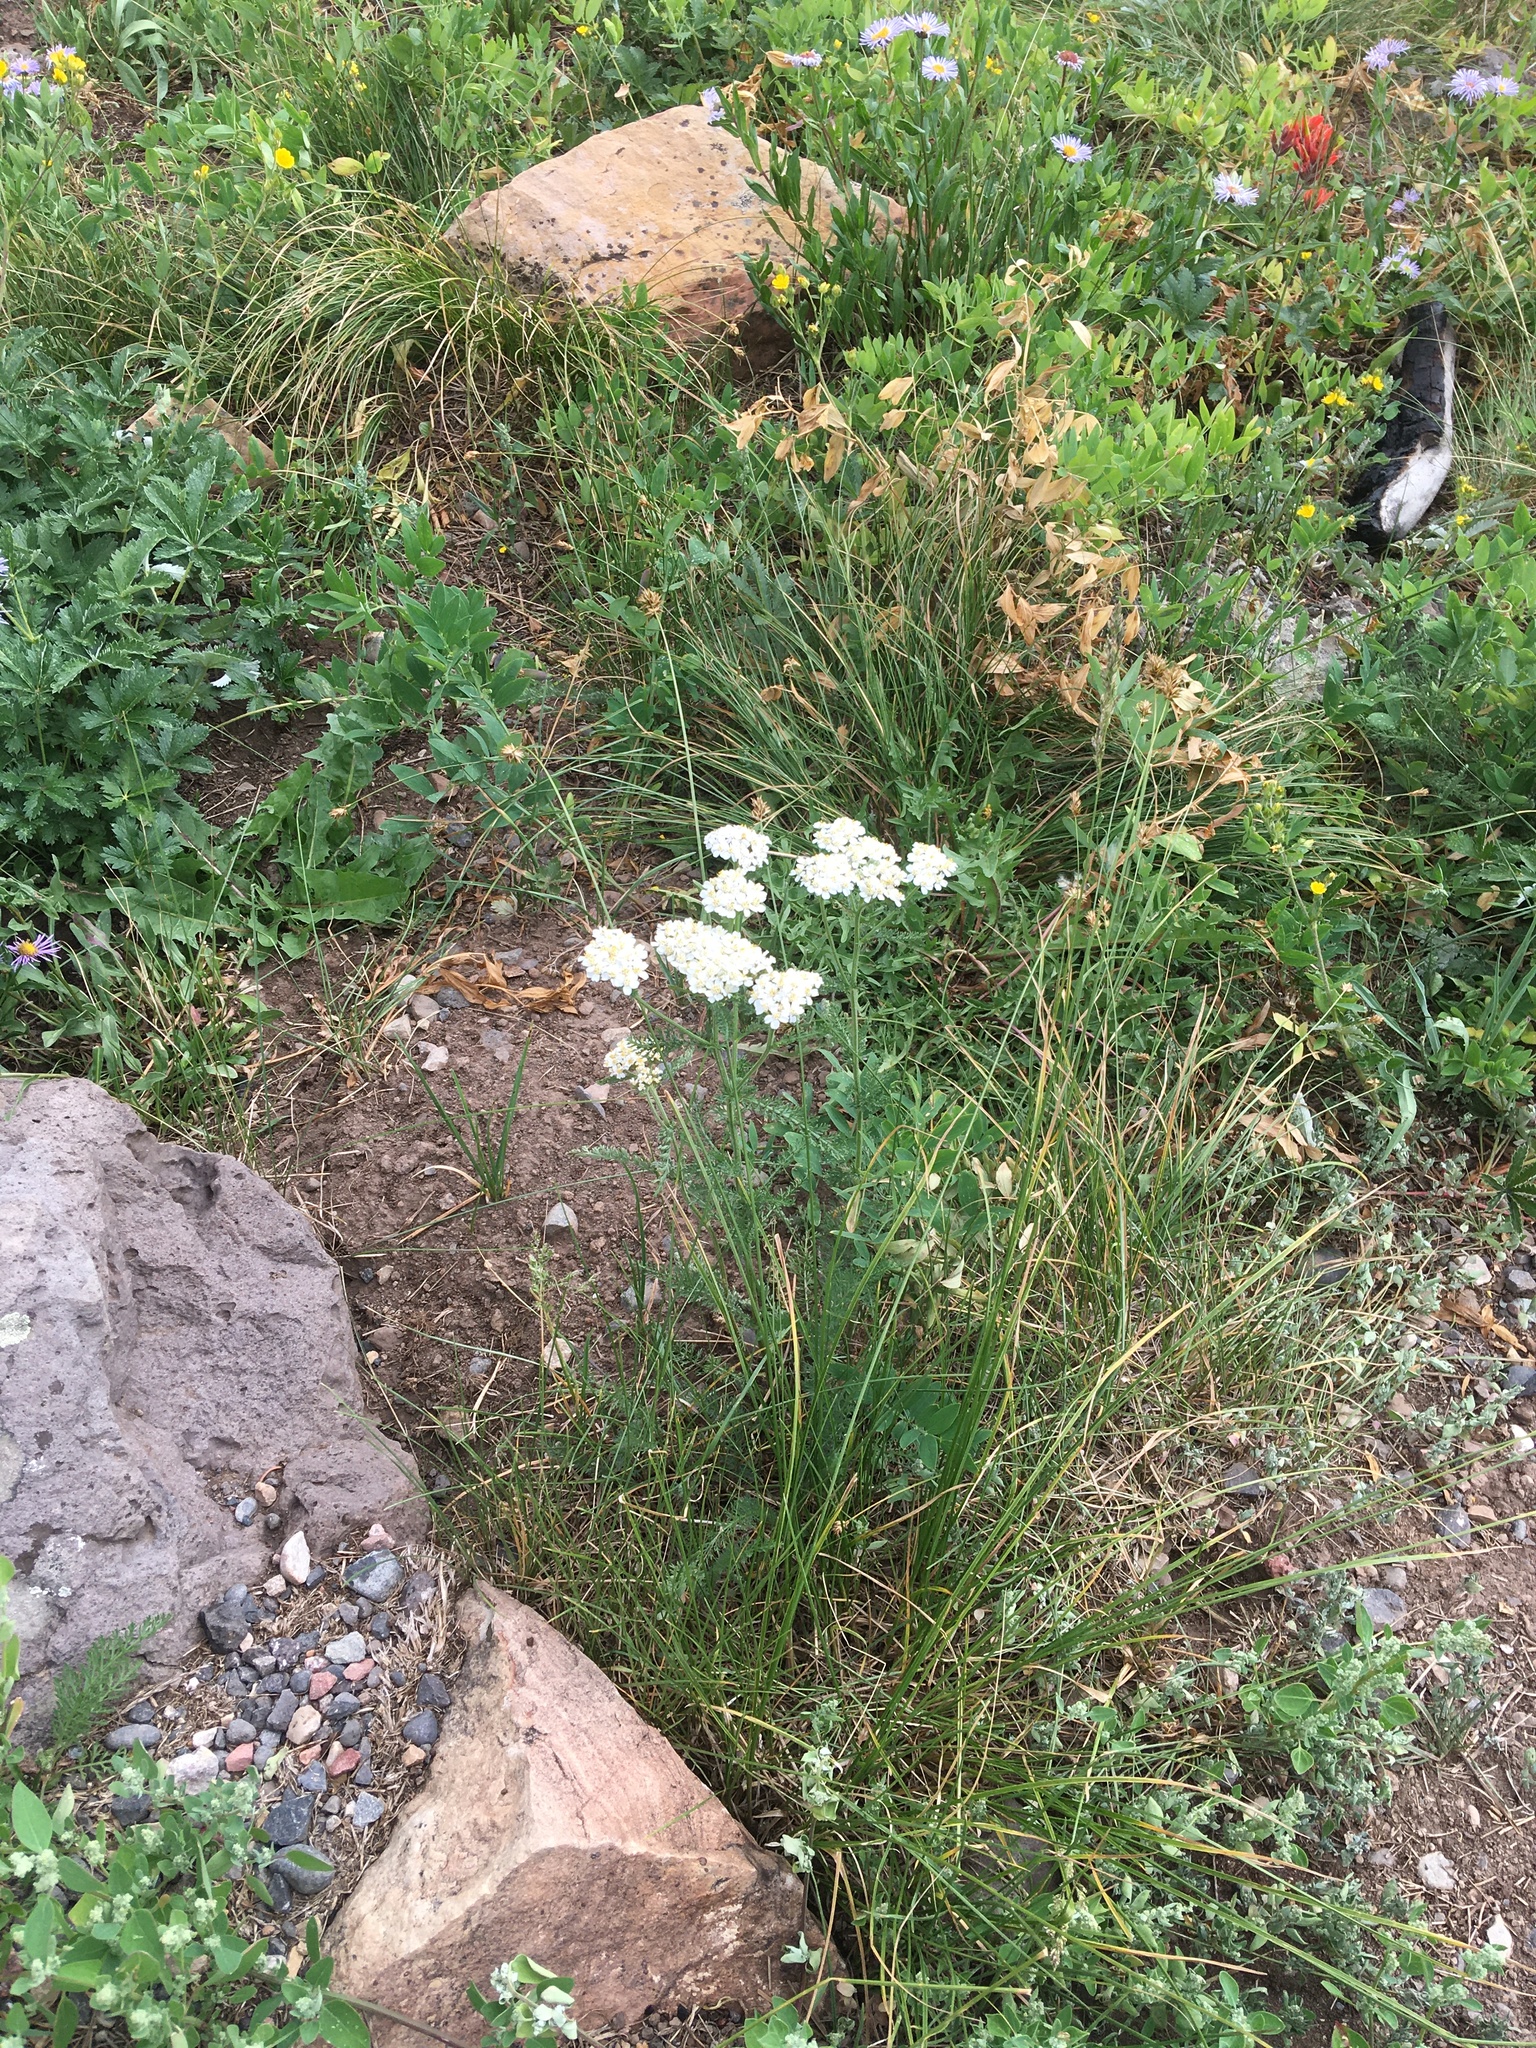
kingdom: Plantae
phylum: Tracheophyta
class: Magnoliopsida
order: Asterales
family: Asteraceae
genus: Achillea
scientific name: Achillea millefolium
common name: Yarrow
